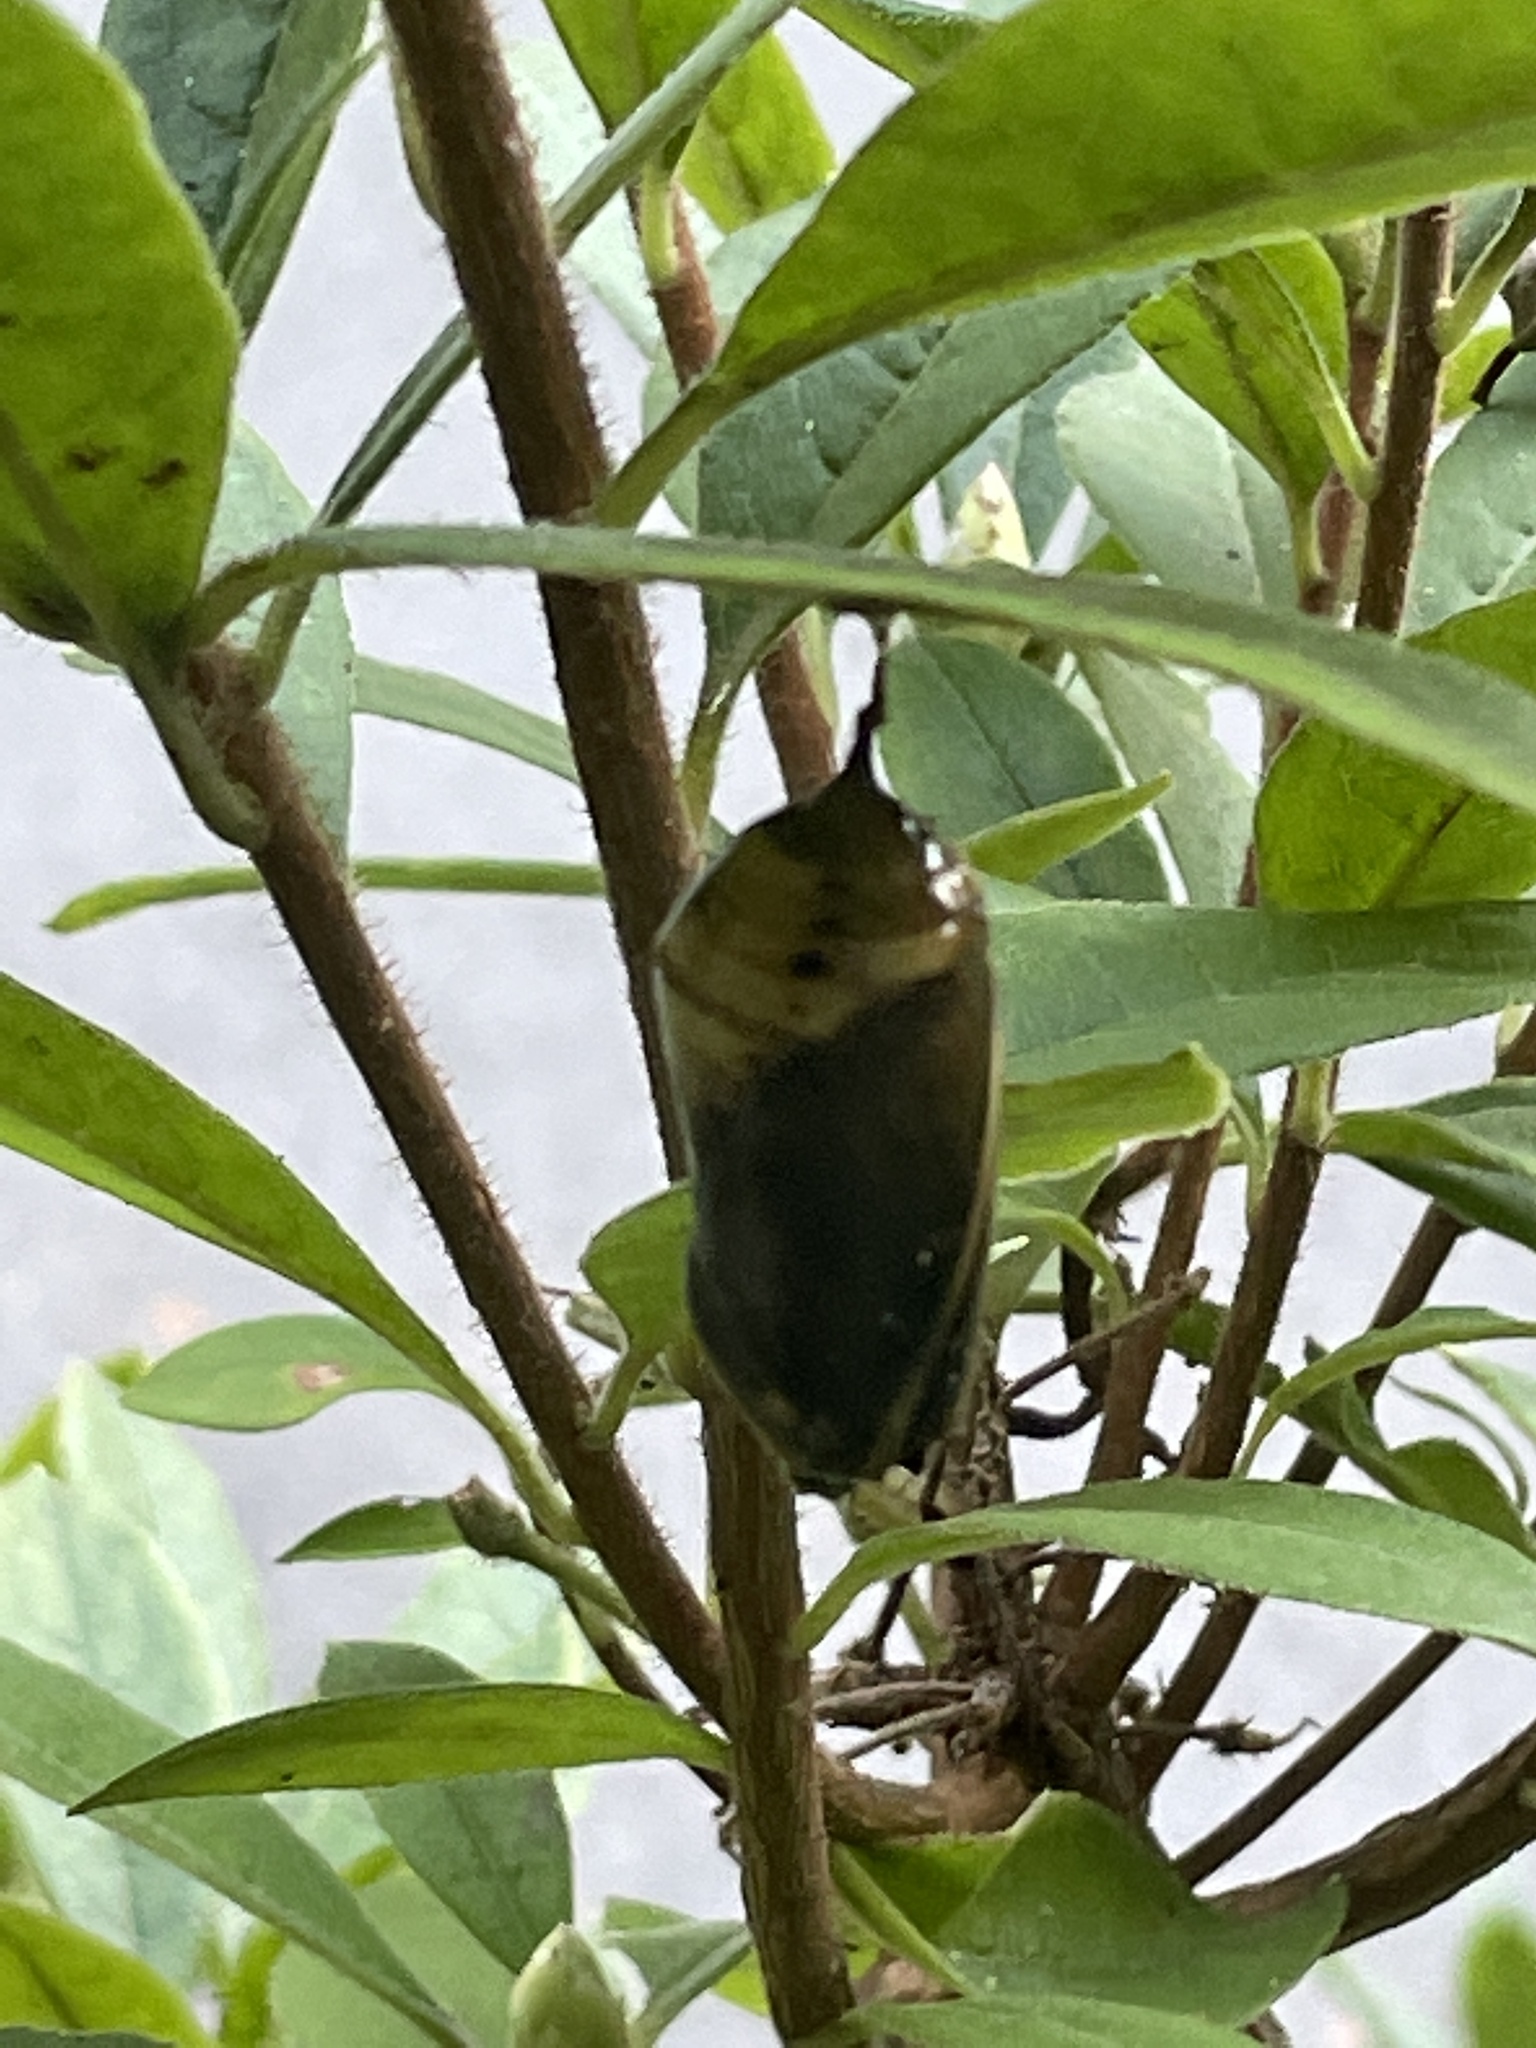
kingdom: Animalia
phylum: Arthropoda
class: Insecta
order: Lepidoptera
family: Nymphalidae
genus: Danaus
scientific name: Danaus plexippus
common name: Monarch
